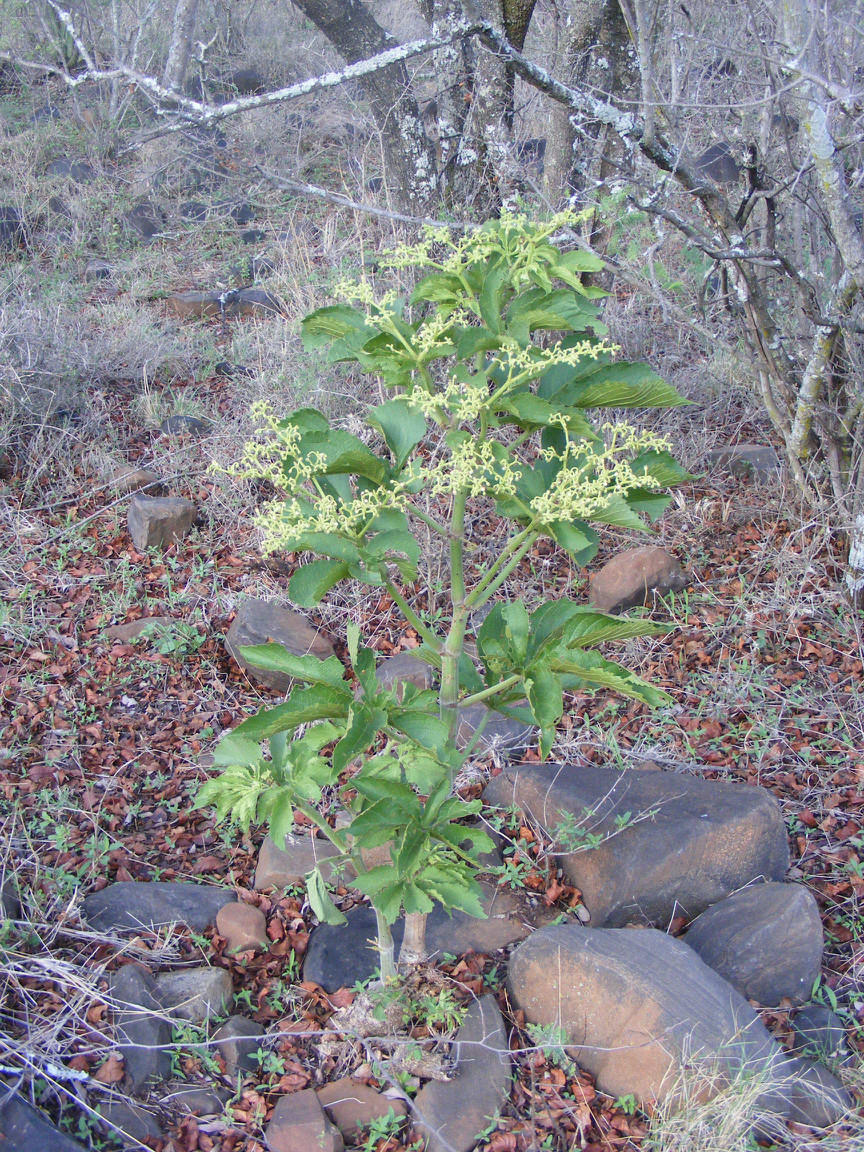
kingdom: Plantae
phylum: Tracheophyta
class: Magnoliopsida
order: Vitales
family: Vitaceae
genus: Cyphostemma
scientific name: Cyphostemma woodii
